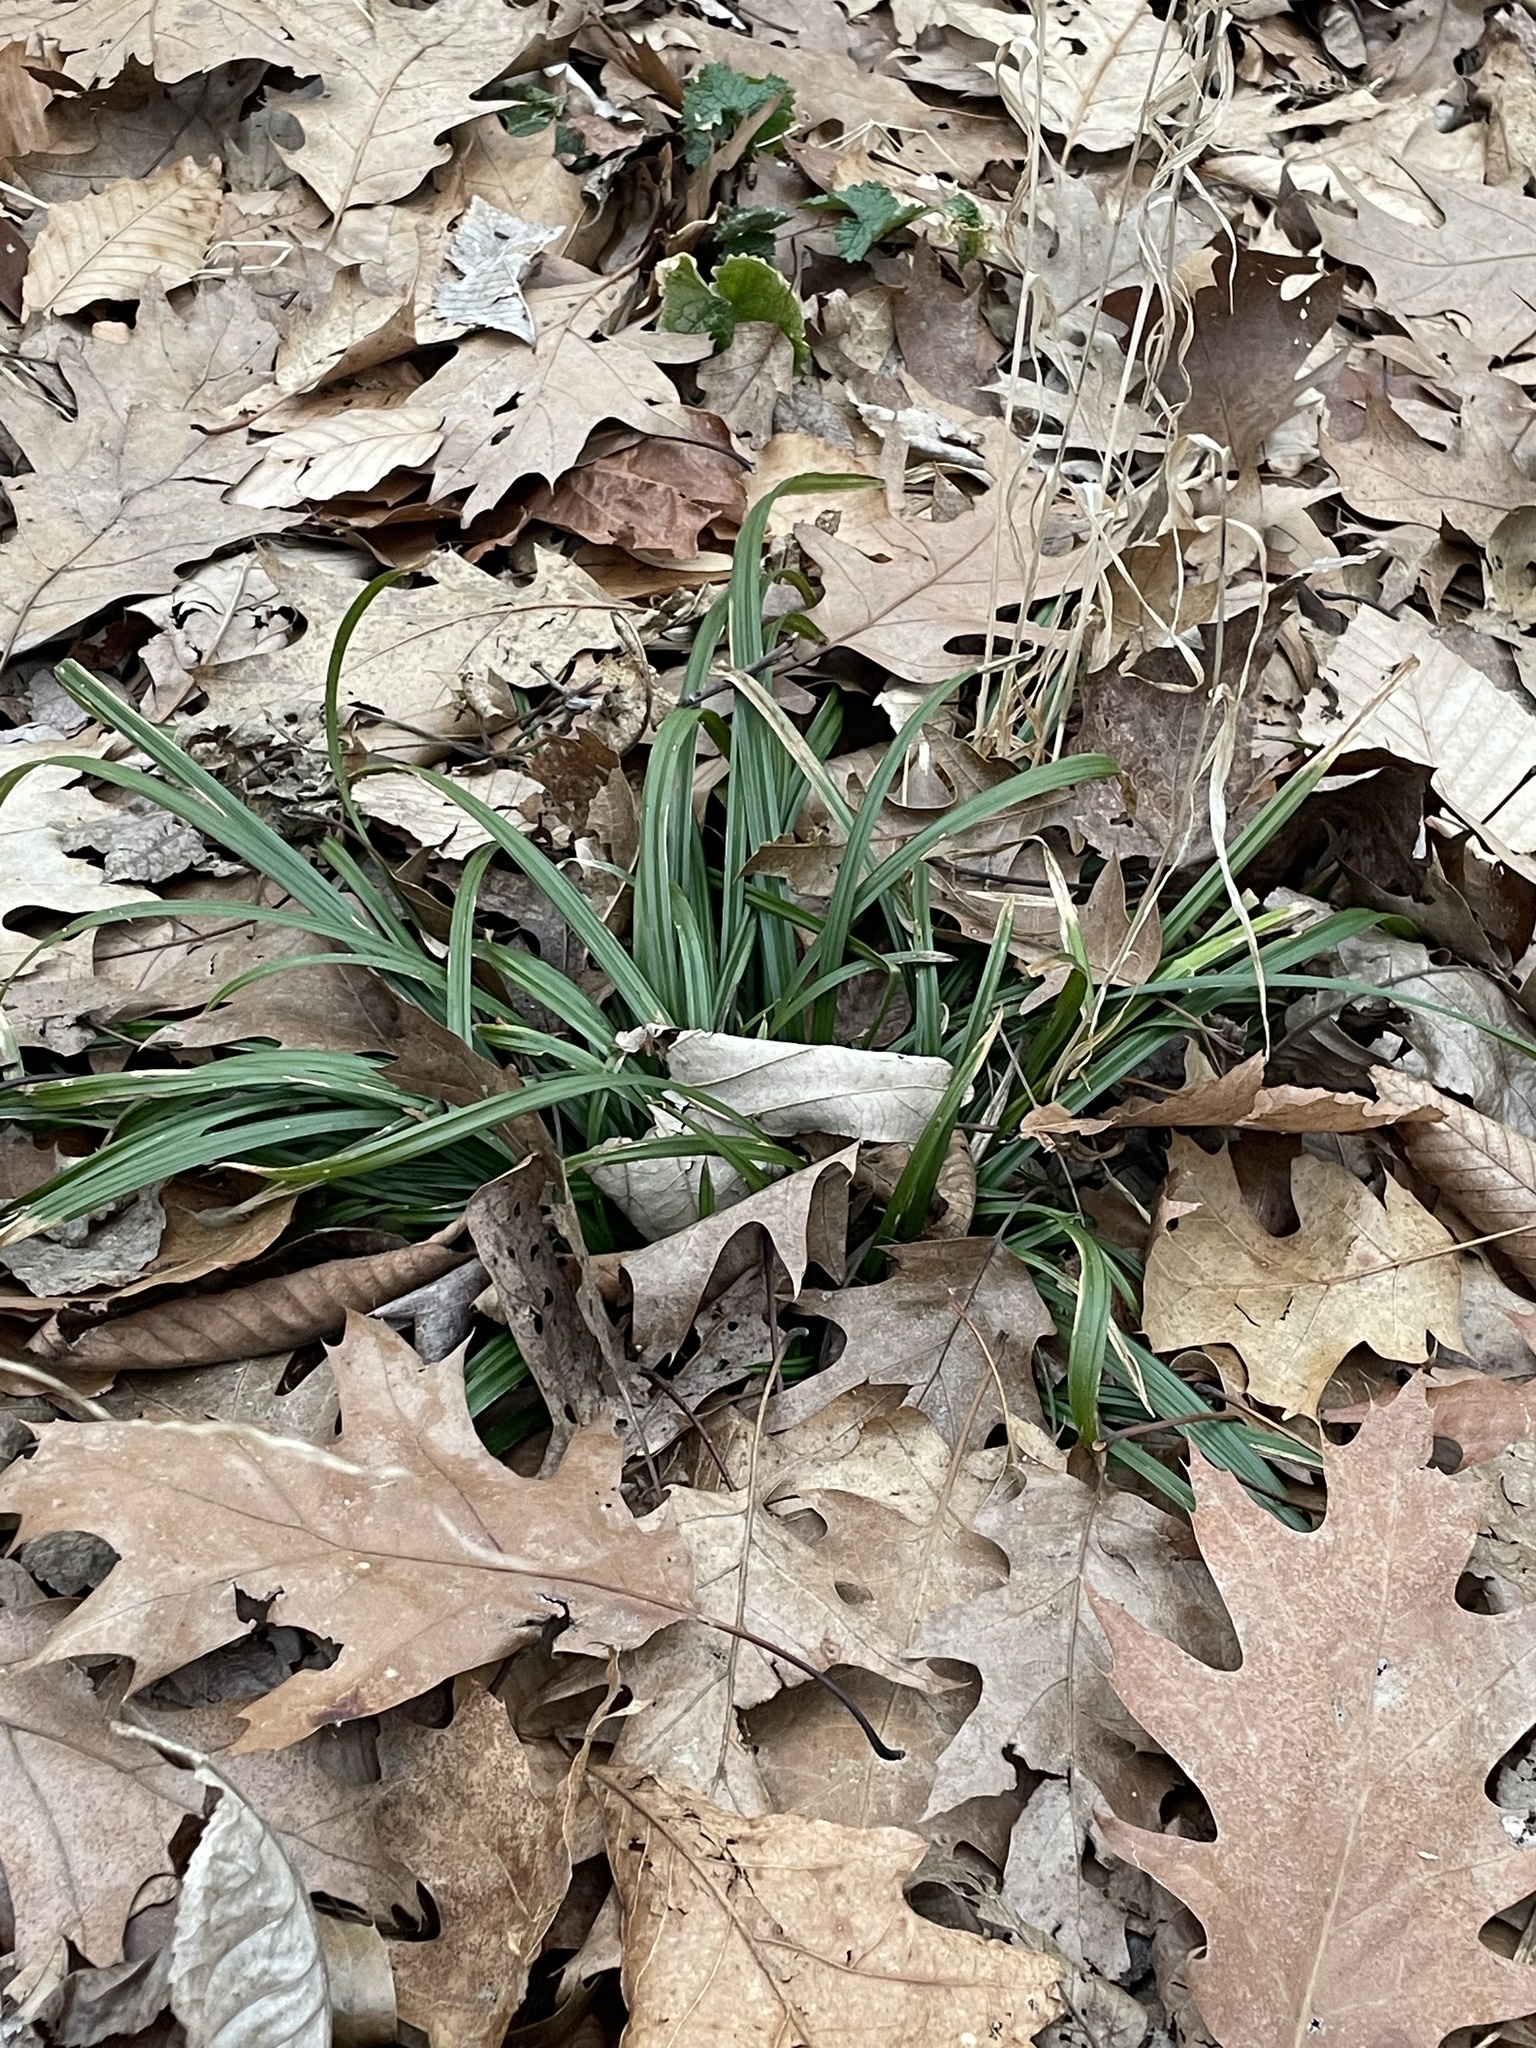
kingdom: Plantae
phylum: Tracheophyta
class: Liliopsida
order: Poales
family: Cyperaceae
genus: Carex
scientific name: Carex
